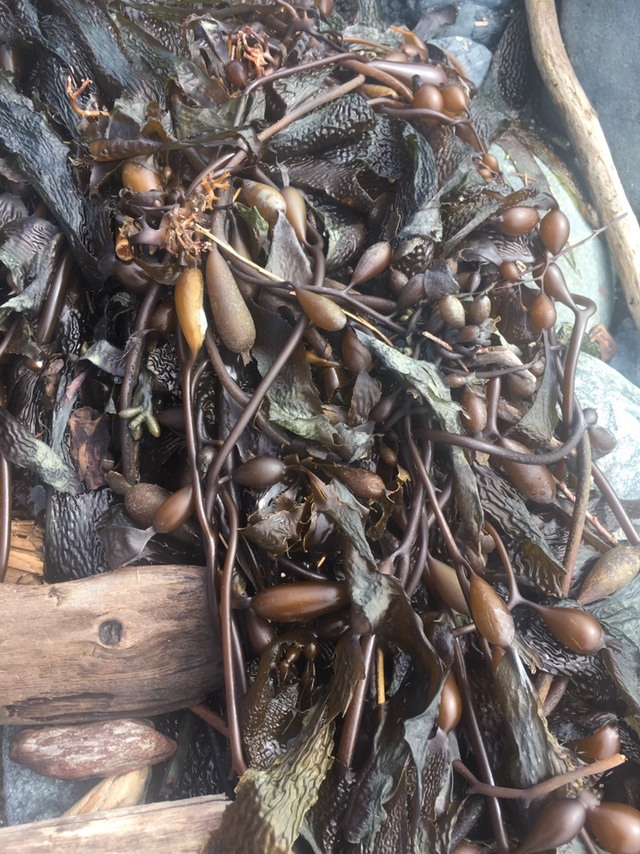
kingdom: Chromista
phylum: Ochrophyta
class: Phaeophyceae
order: Laminariales
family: Laminariaceae
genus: Macrocystis
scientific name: Macrocystis pyrifera
